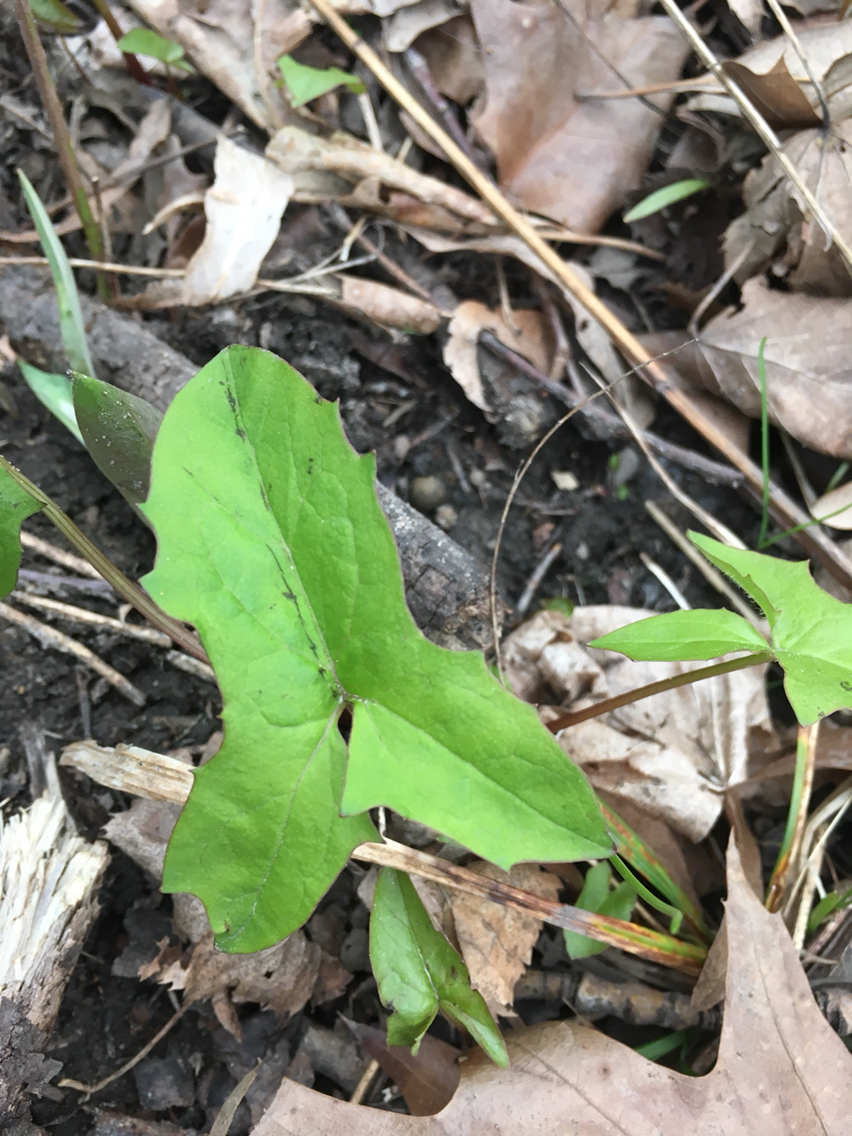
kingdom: Plantae
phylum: Tracheophyta
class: Magnoliopsida
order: Asterales
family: Asteraceae
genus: Nabalus
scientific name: Nabalus albus
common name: White rattlesnakeroot
